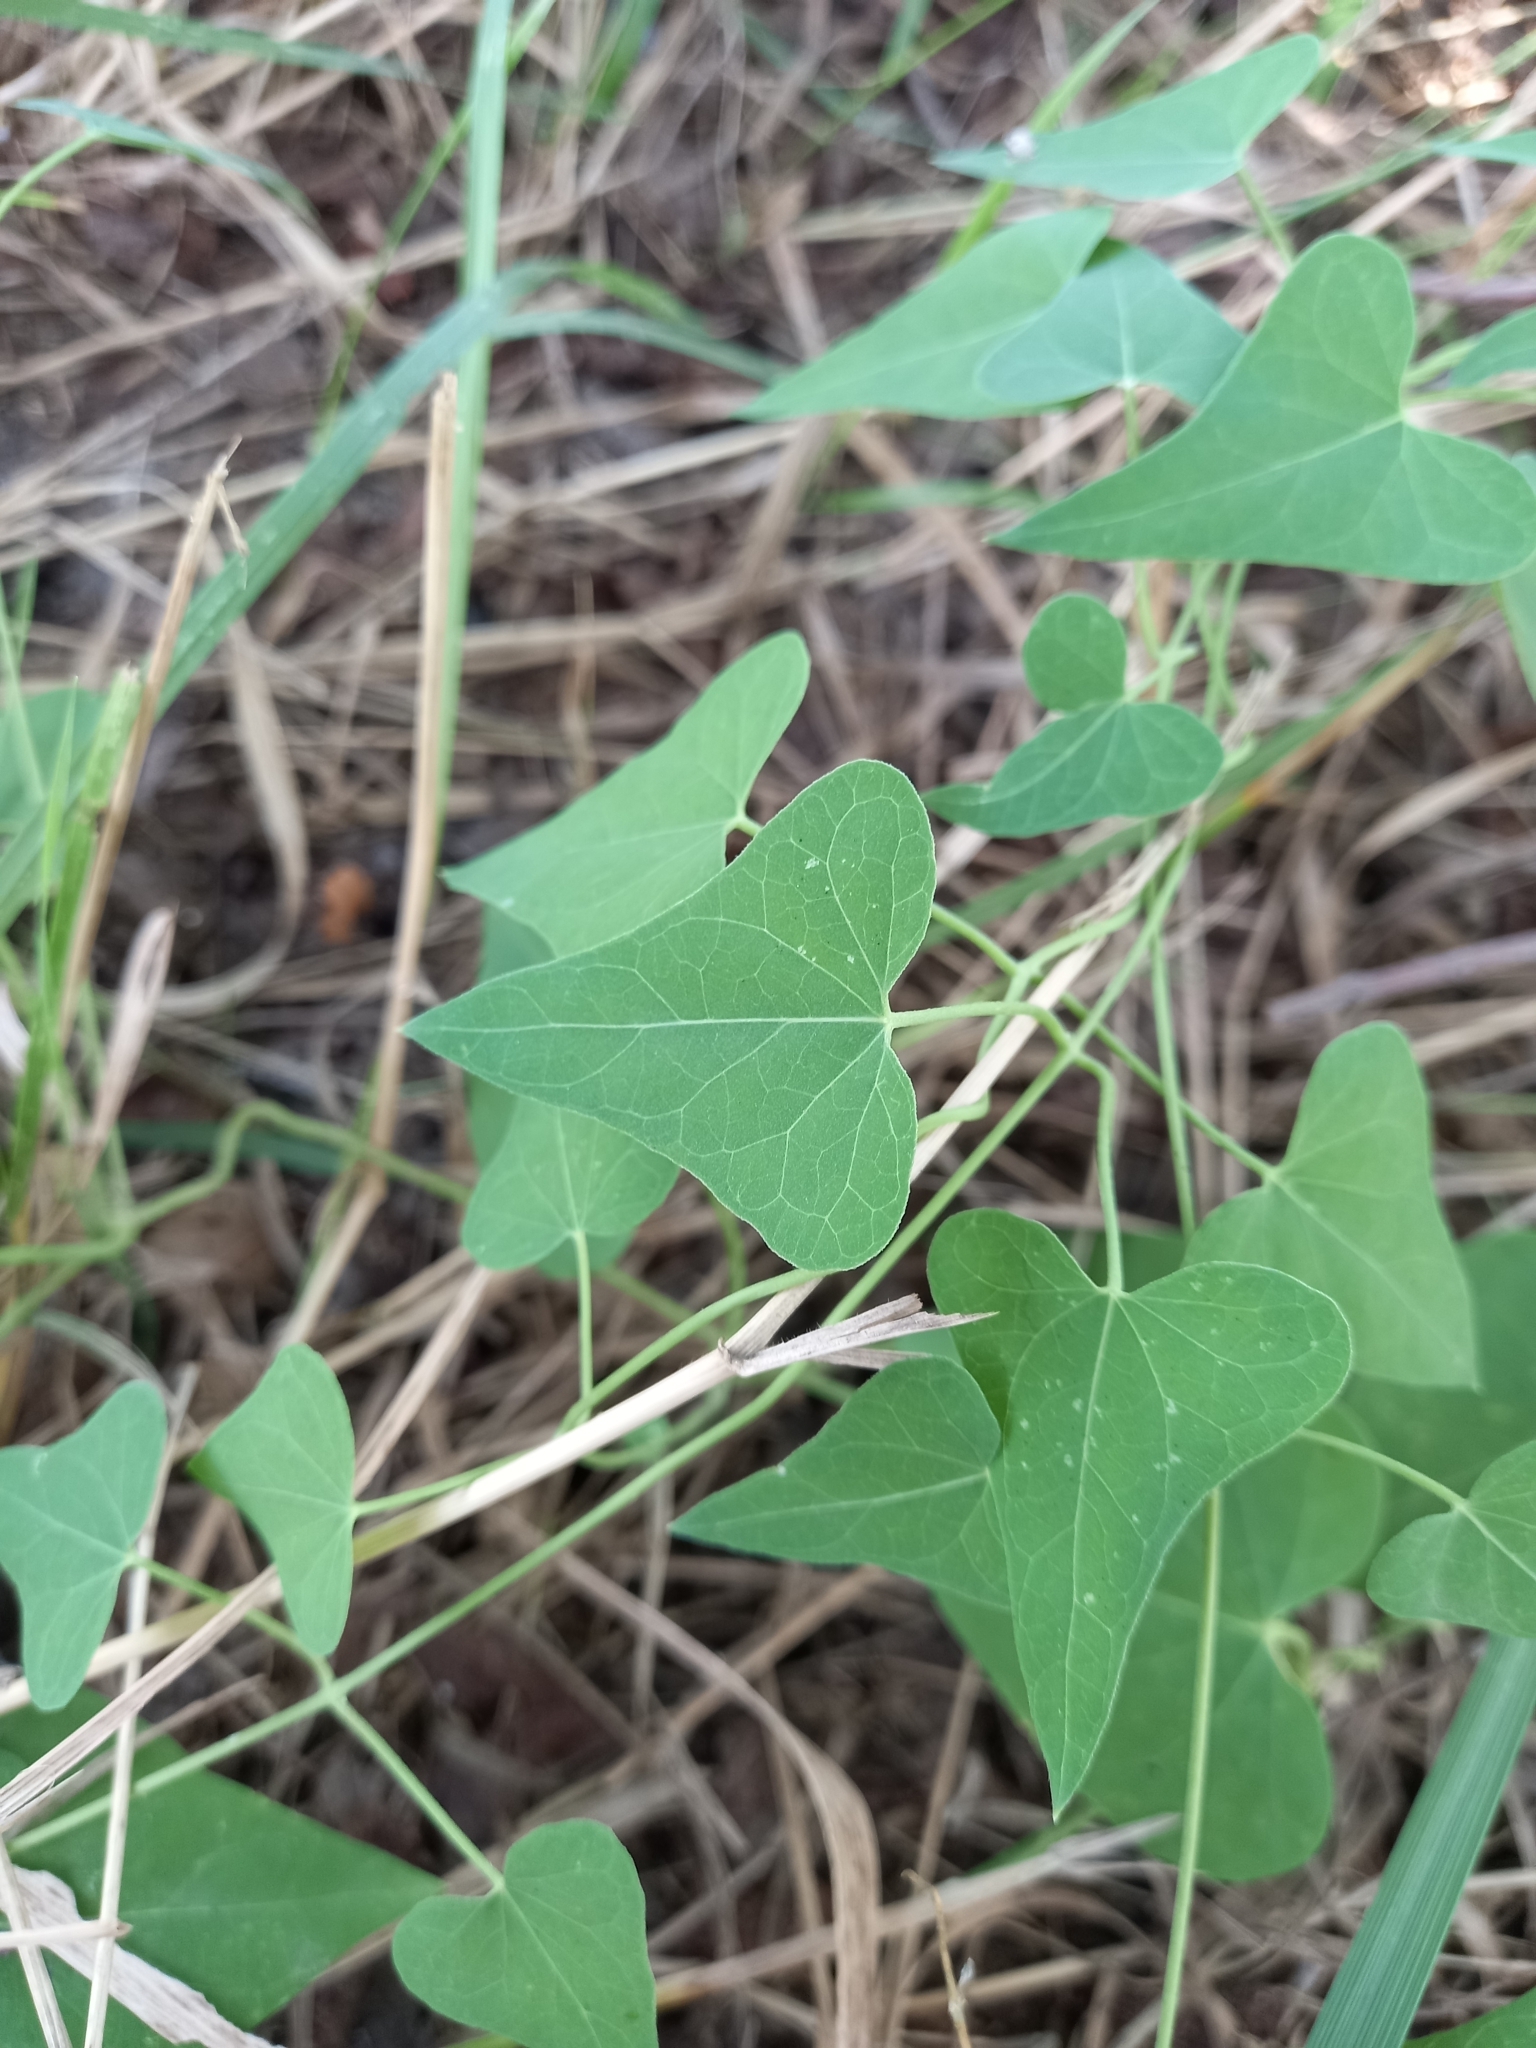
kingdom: Plantae
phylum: Tracheophyta
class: Magnoliopsida
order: Gentianales
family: Apocynaceae
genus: Cynanchum
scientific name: Cynanchum acutum
